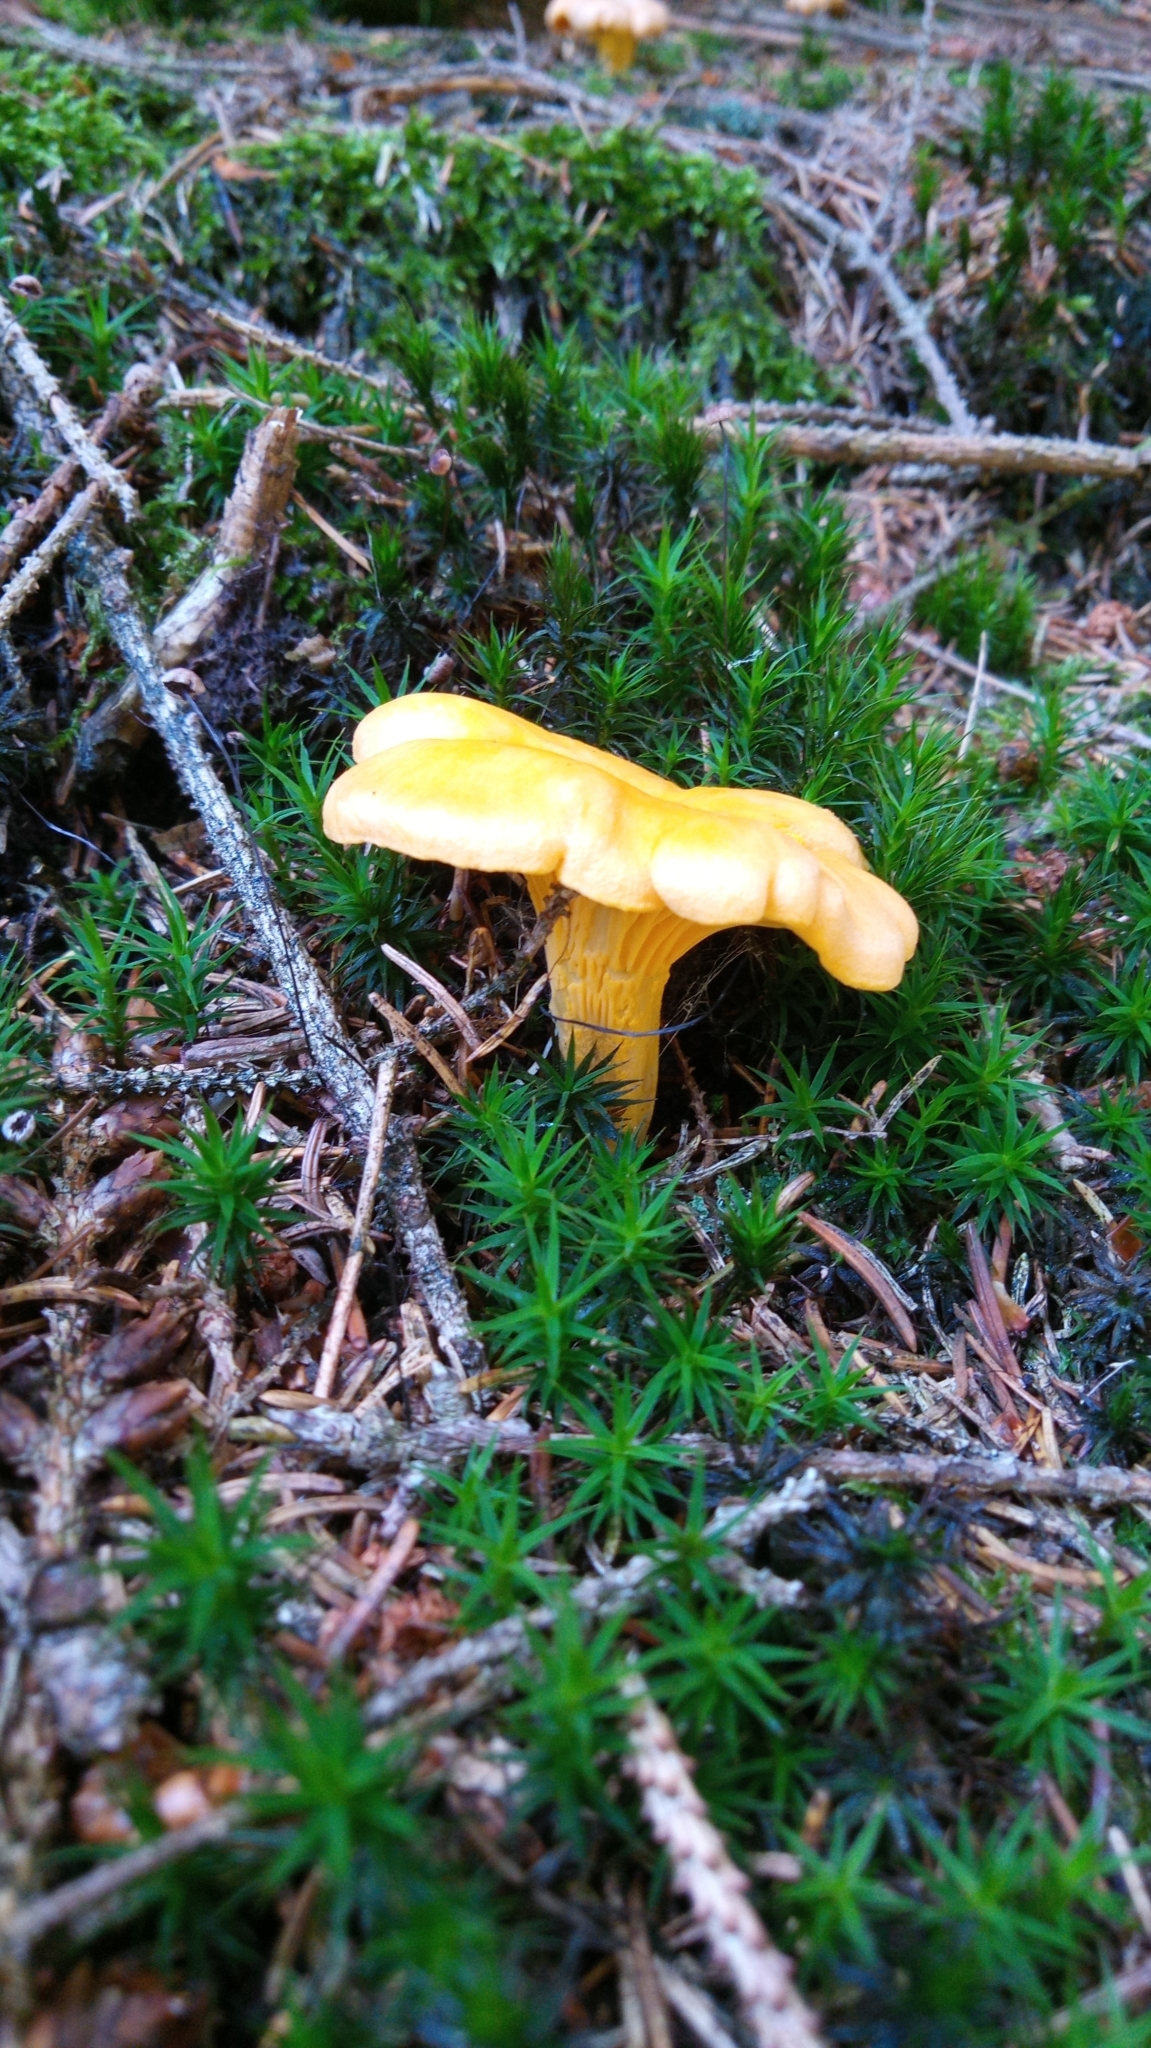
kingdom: Fungi
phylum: Basidiomycota
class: Agaricomycetes
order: Cantharellales
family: Hydnaceae
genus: Cantharellus
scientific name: Cantharellus cibarius
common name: Chanterelle
